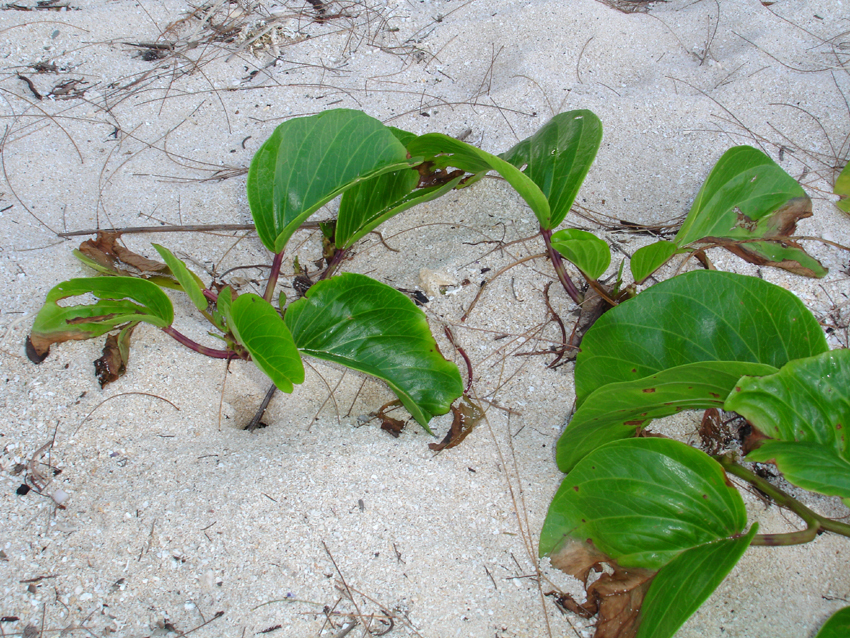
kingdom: Plantae
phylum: Tracheophyta
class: Magnoliopsida
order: Solanales
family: Convolvulaceae
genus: Ipomoea
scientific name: Ipomoea pes-caprae
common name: Beach morning glory
